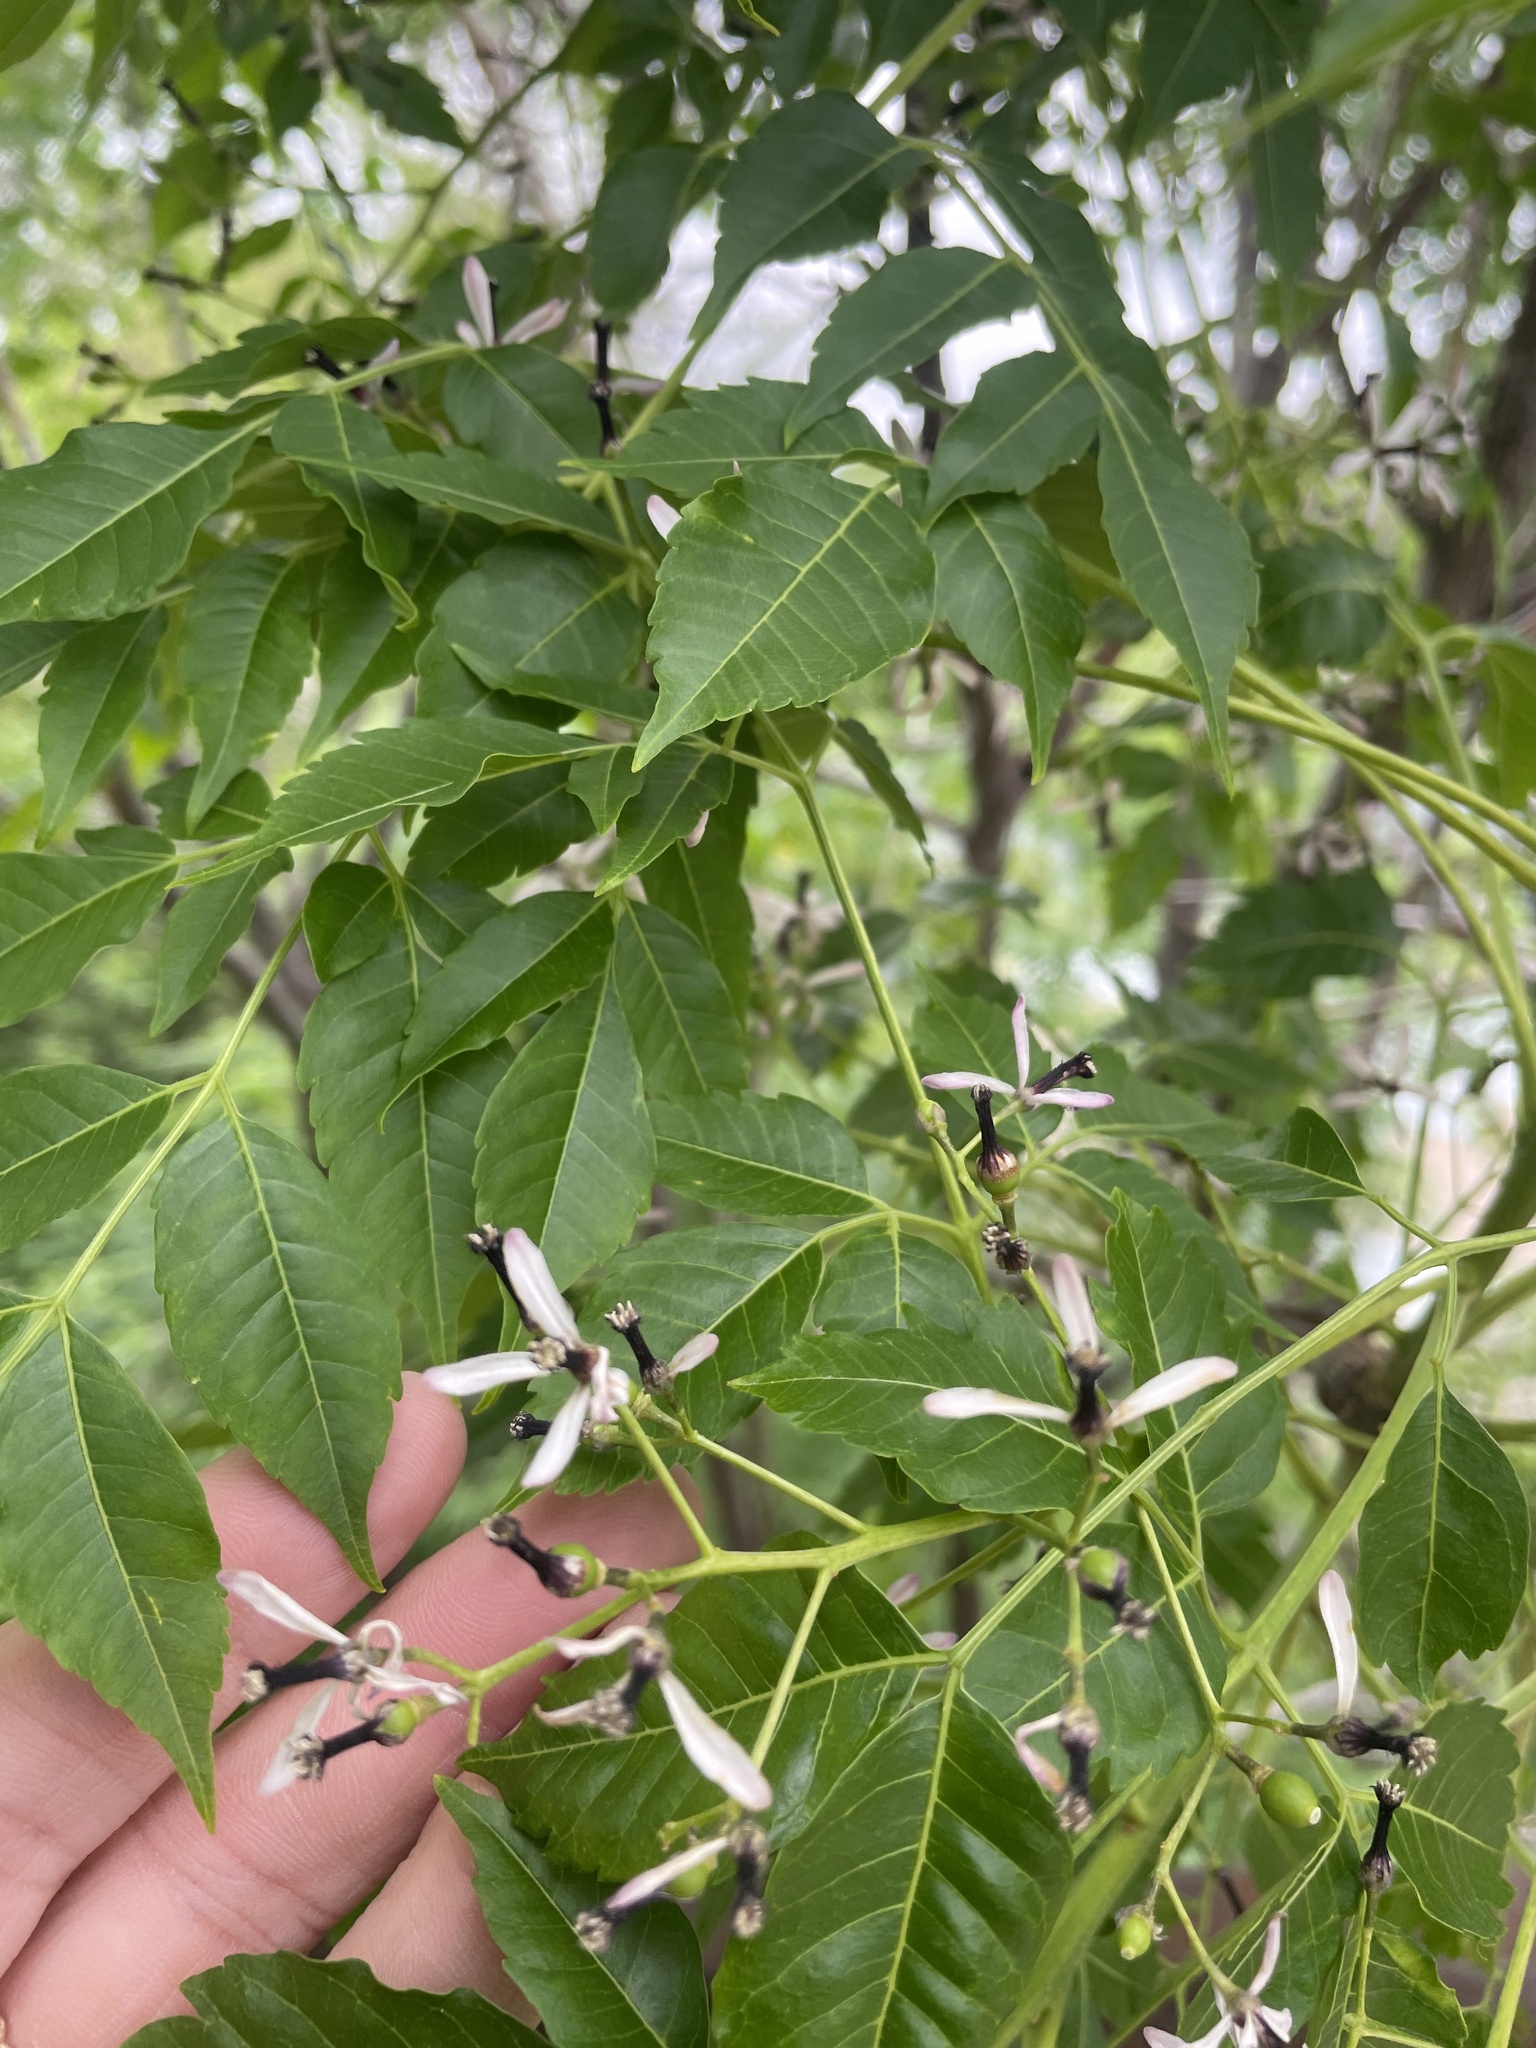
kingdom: Plantae
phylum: Tracheophyta
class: Magnoliopsida
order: Sapindales
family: Meliaceae
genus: Melia
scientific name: Melia azedarach
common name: Chinaberrytree
